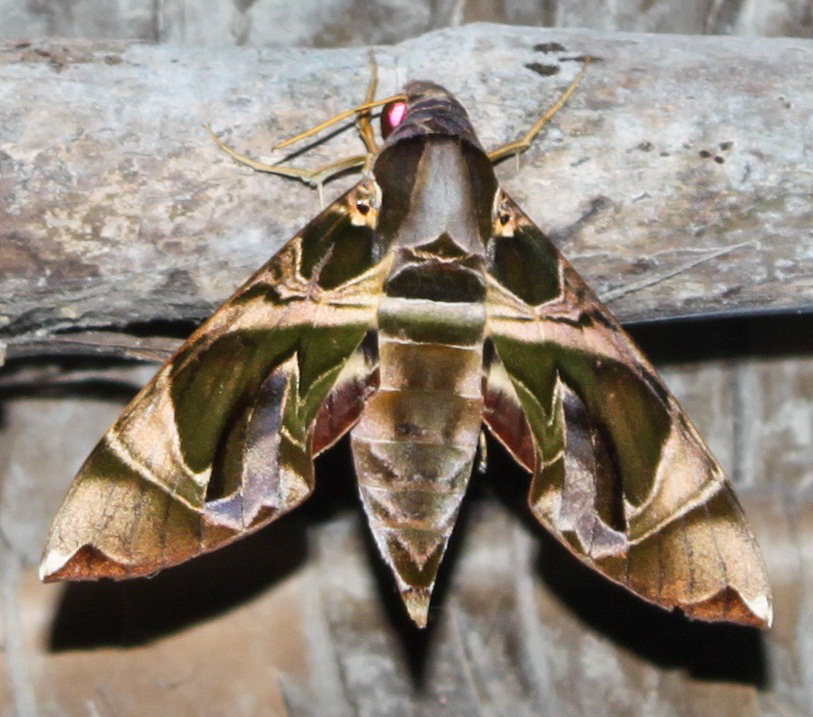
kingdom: Animalia
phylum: Arthropoda
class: Insecta
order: Lepidoptera
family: Sphingidae
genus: Daphnis
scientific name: Daphnis hypothous
